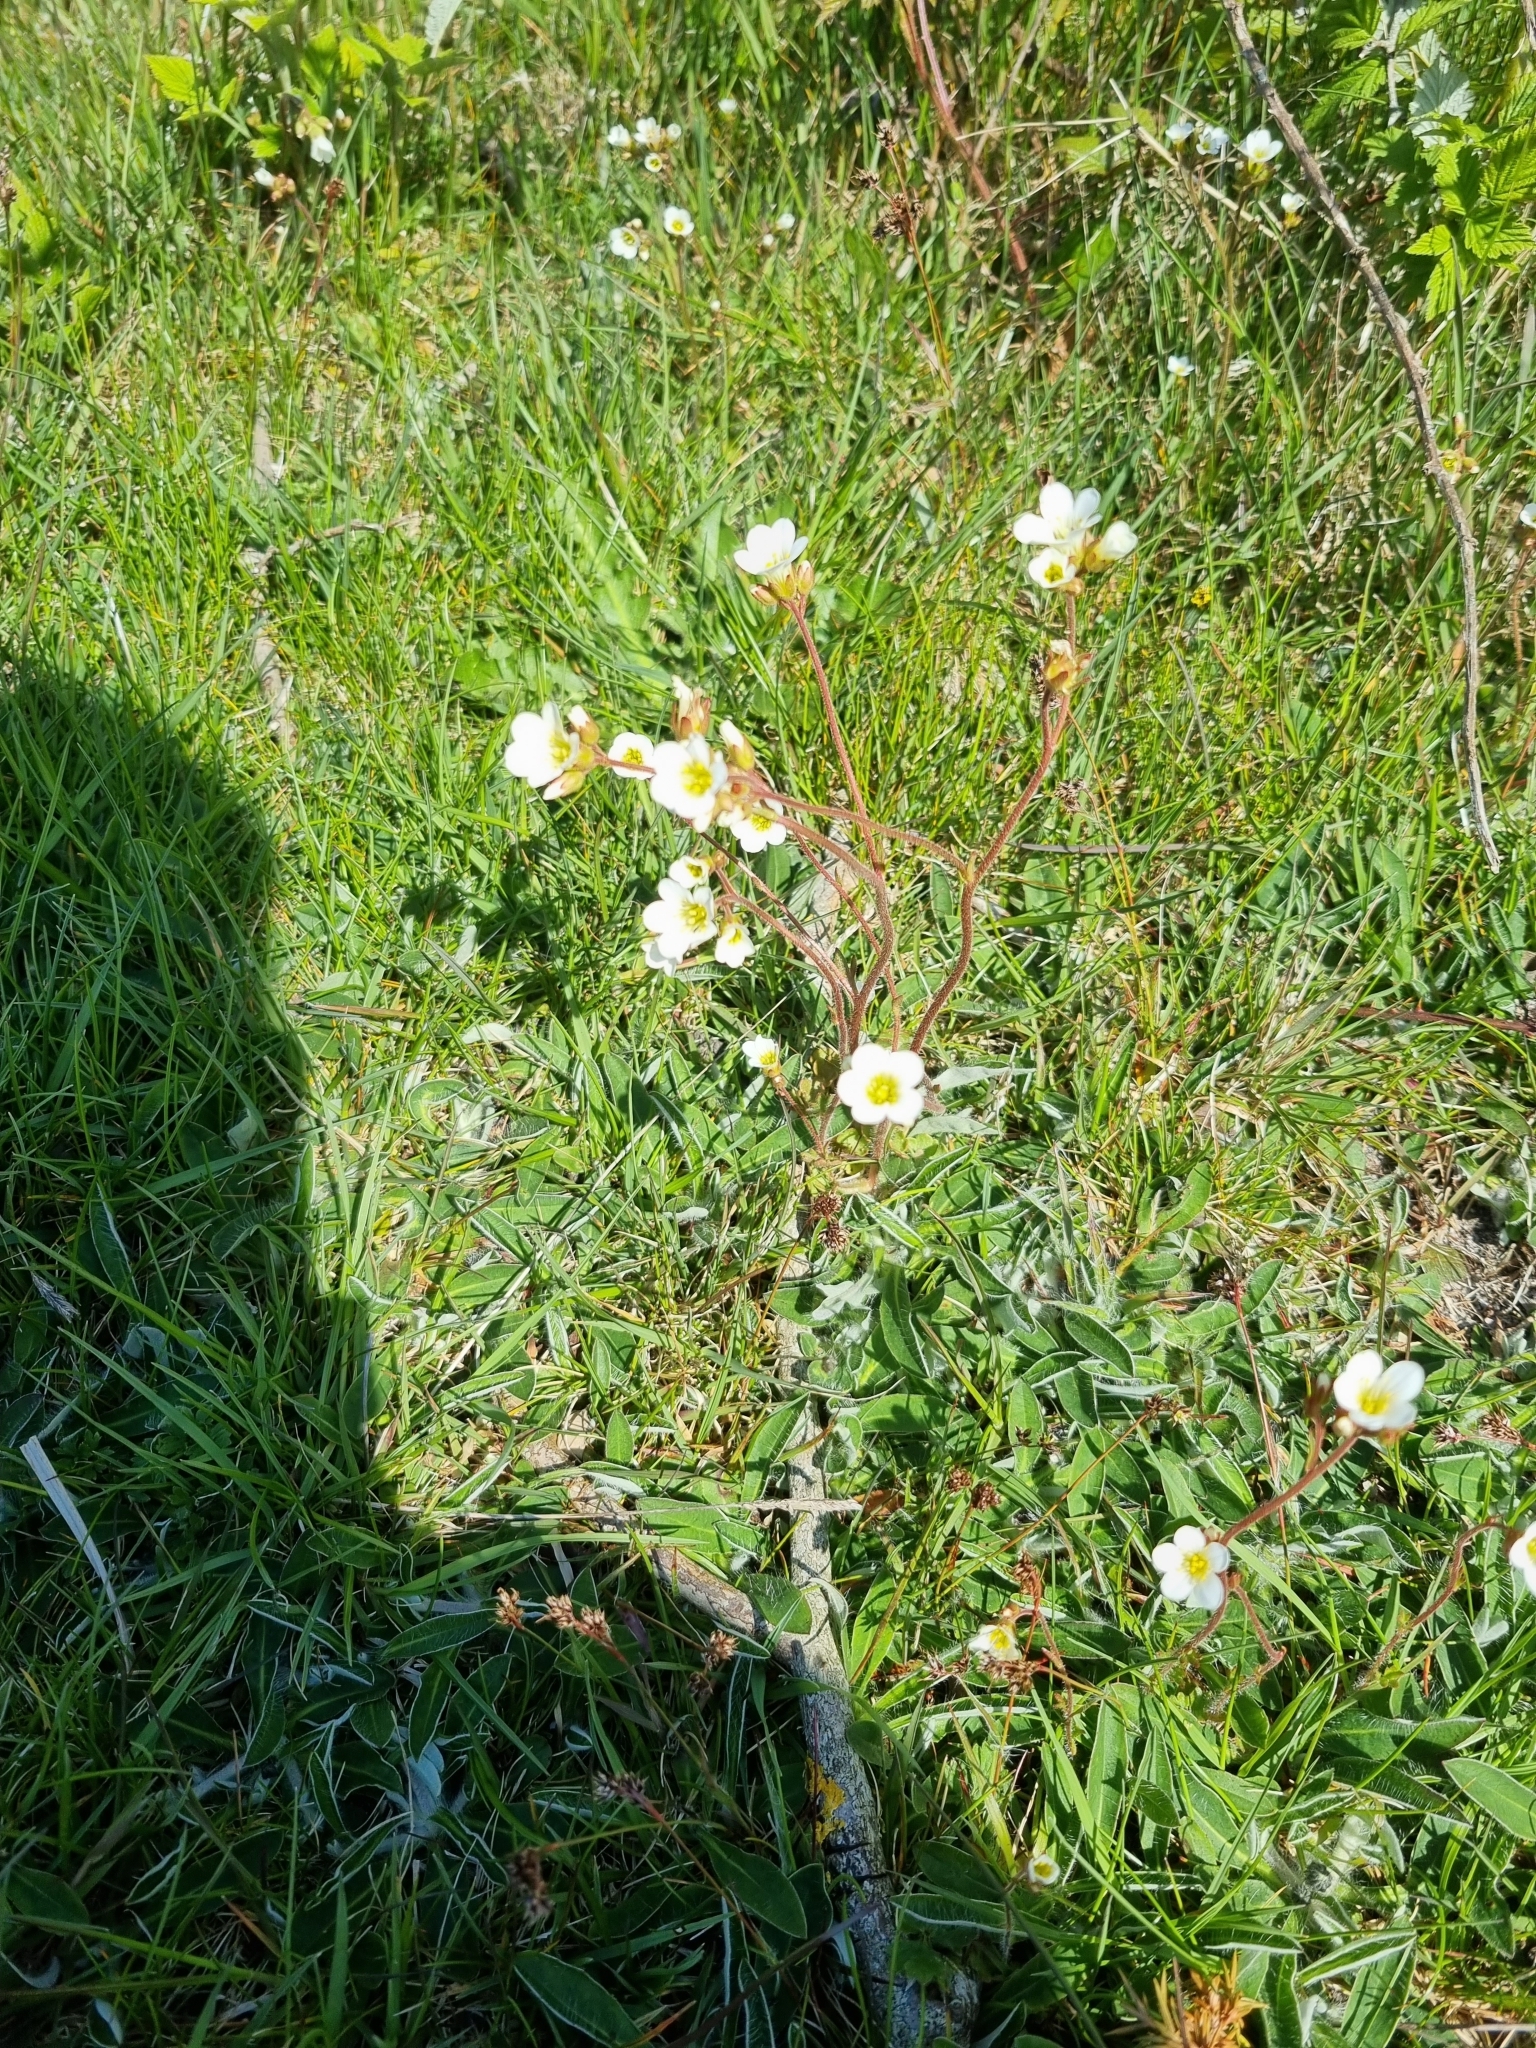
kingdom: Plantae
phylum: Tracheophyta
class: Magnoliopsida
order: Saxifragales
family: Saxifragaceae
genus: Saxifraga
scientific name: Saxifraga granulata
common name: Meadow saxifrage
